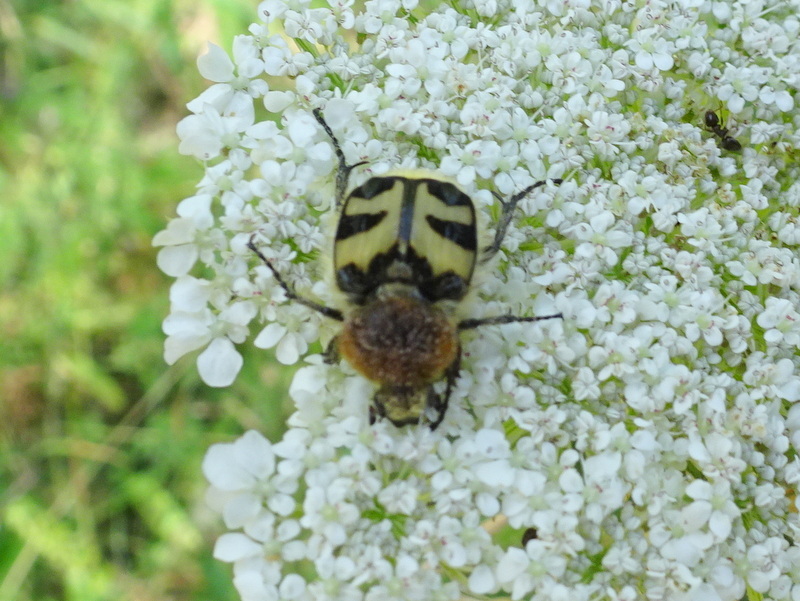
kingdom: Animalia
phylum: Arthropoda
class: Insecta
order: Coleoptera
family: Scarabaeidae
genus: Trichius
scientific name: Trichius fasciatus
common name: Bee beetle
